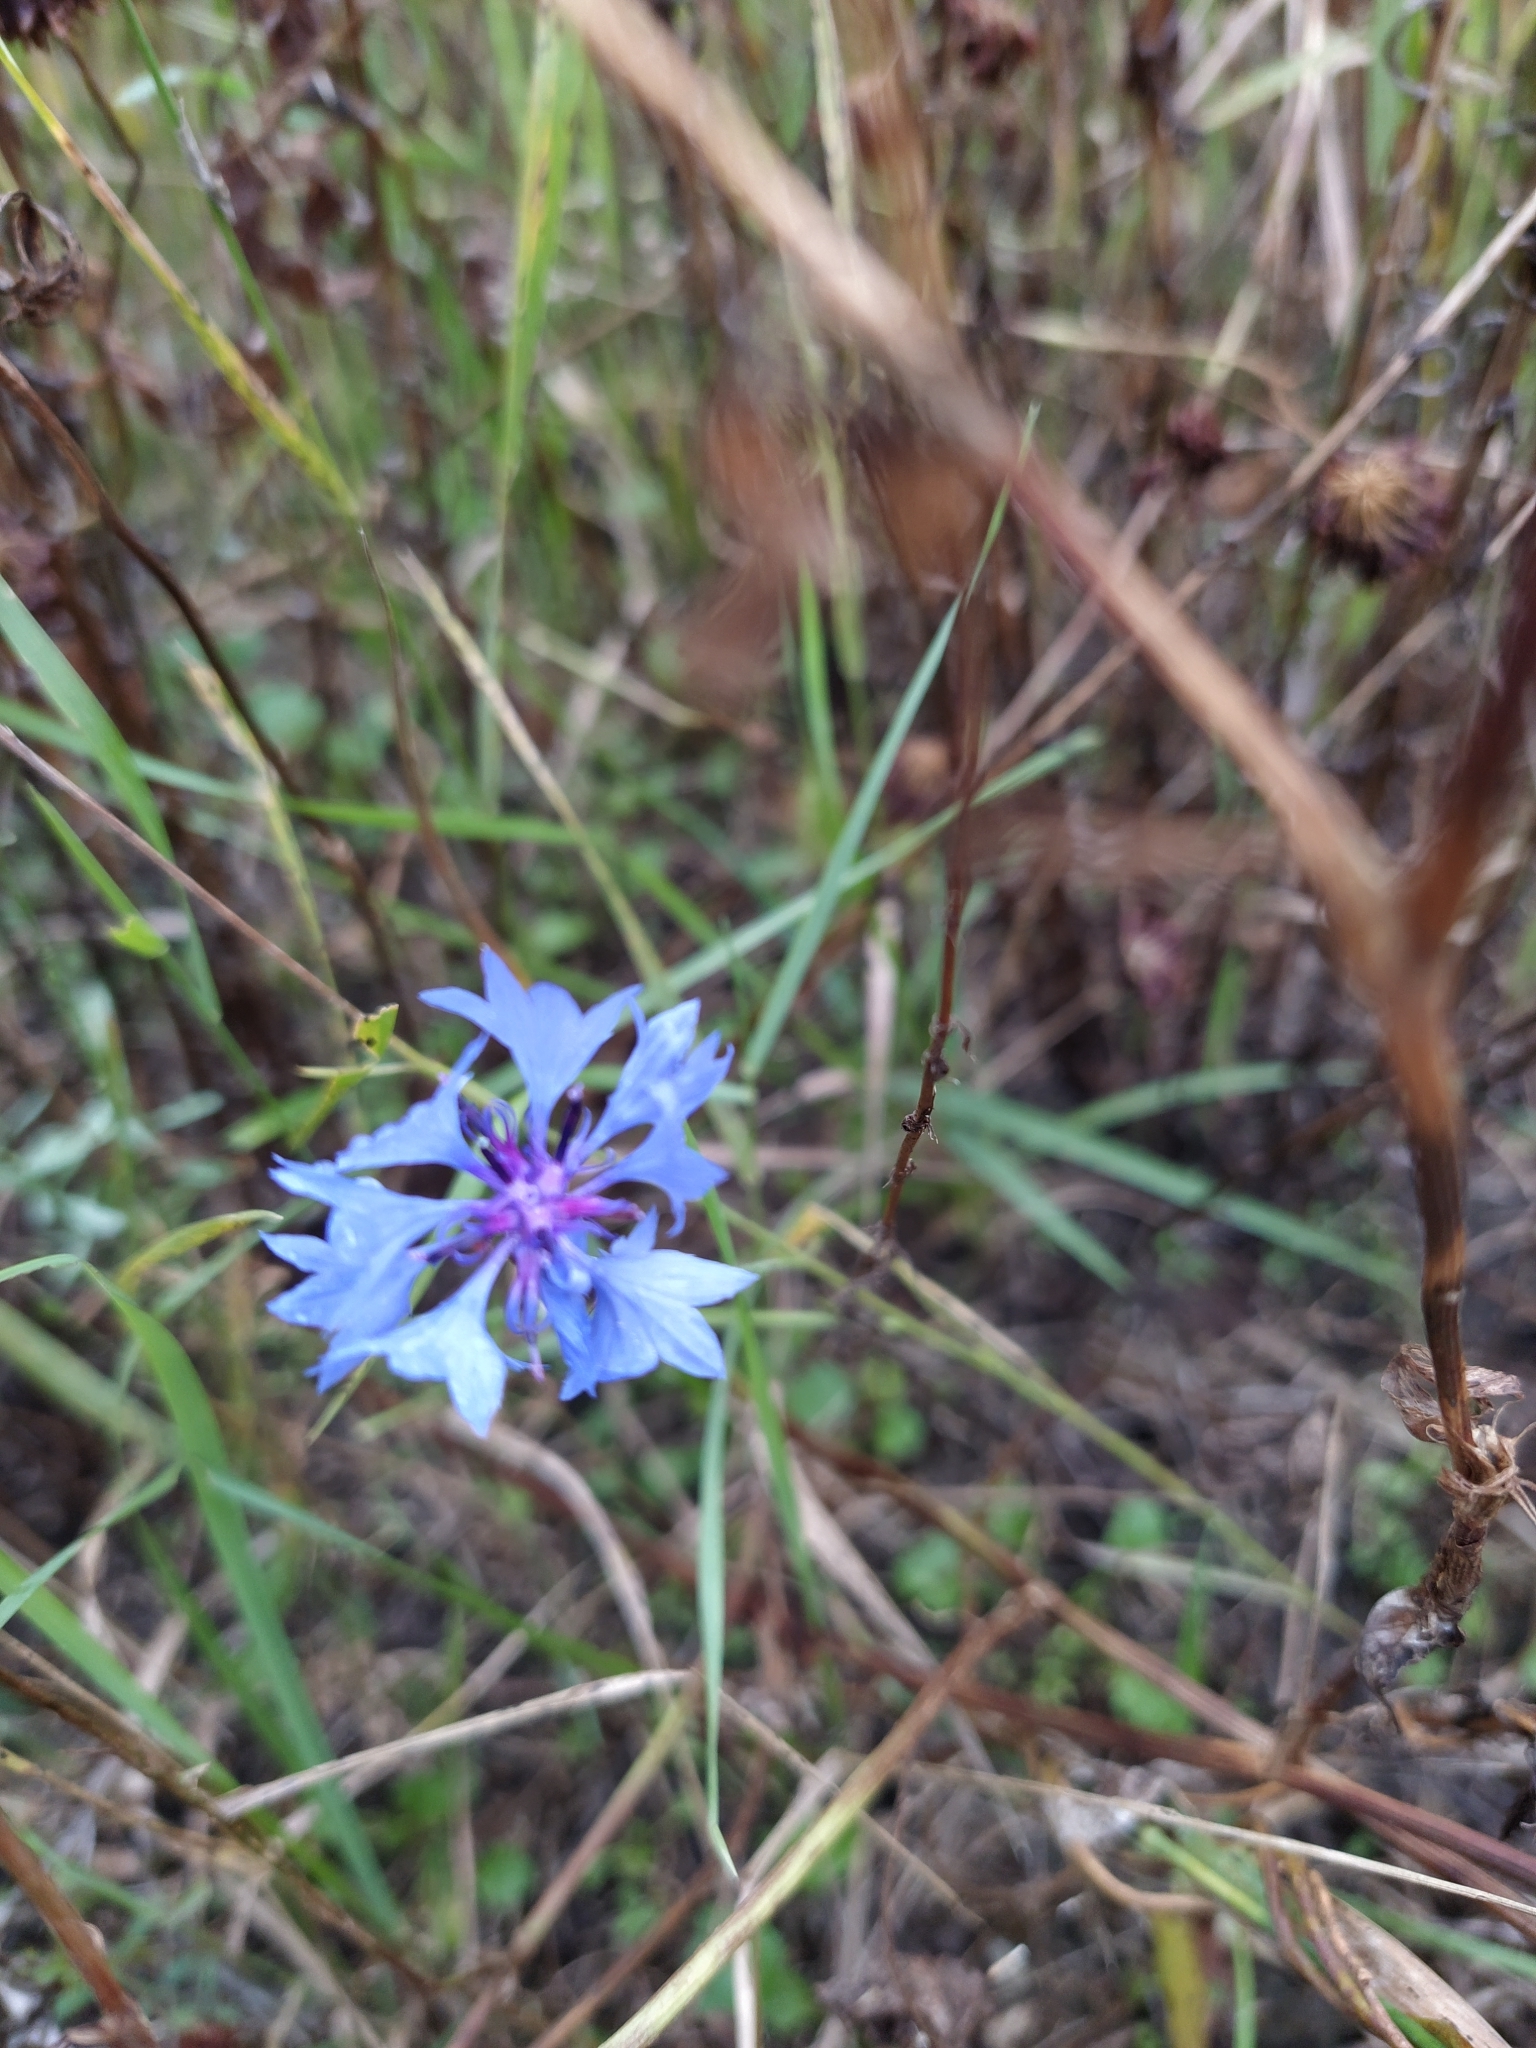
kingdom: Plantae
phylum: Tracheophyta
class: Magnoliopsida
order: Asterales
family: Asteraceae
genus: Centaurea
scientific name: Centaurea cyanus
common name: Cornflower
